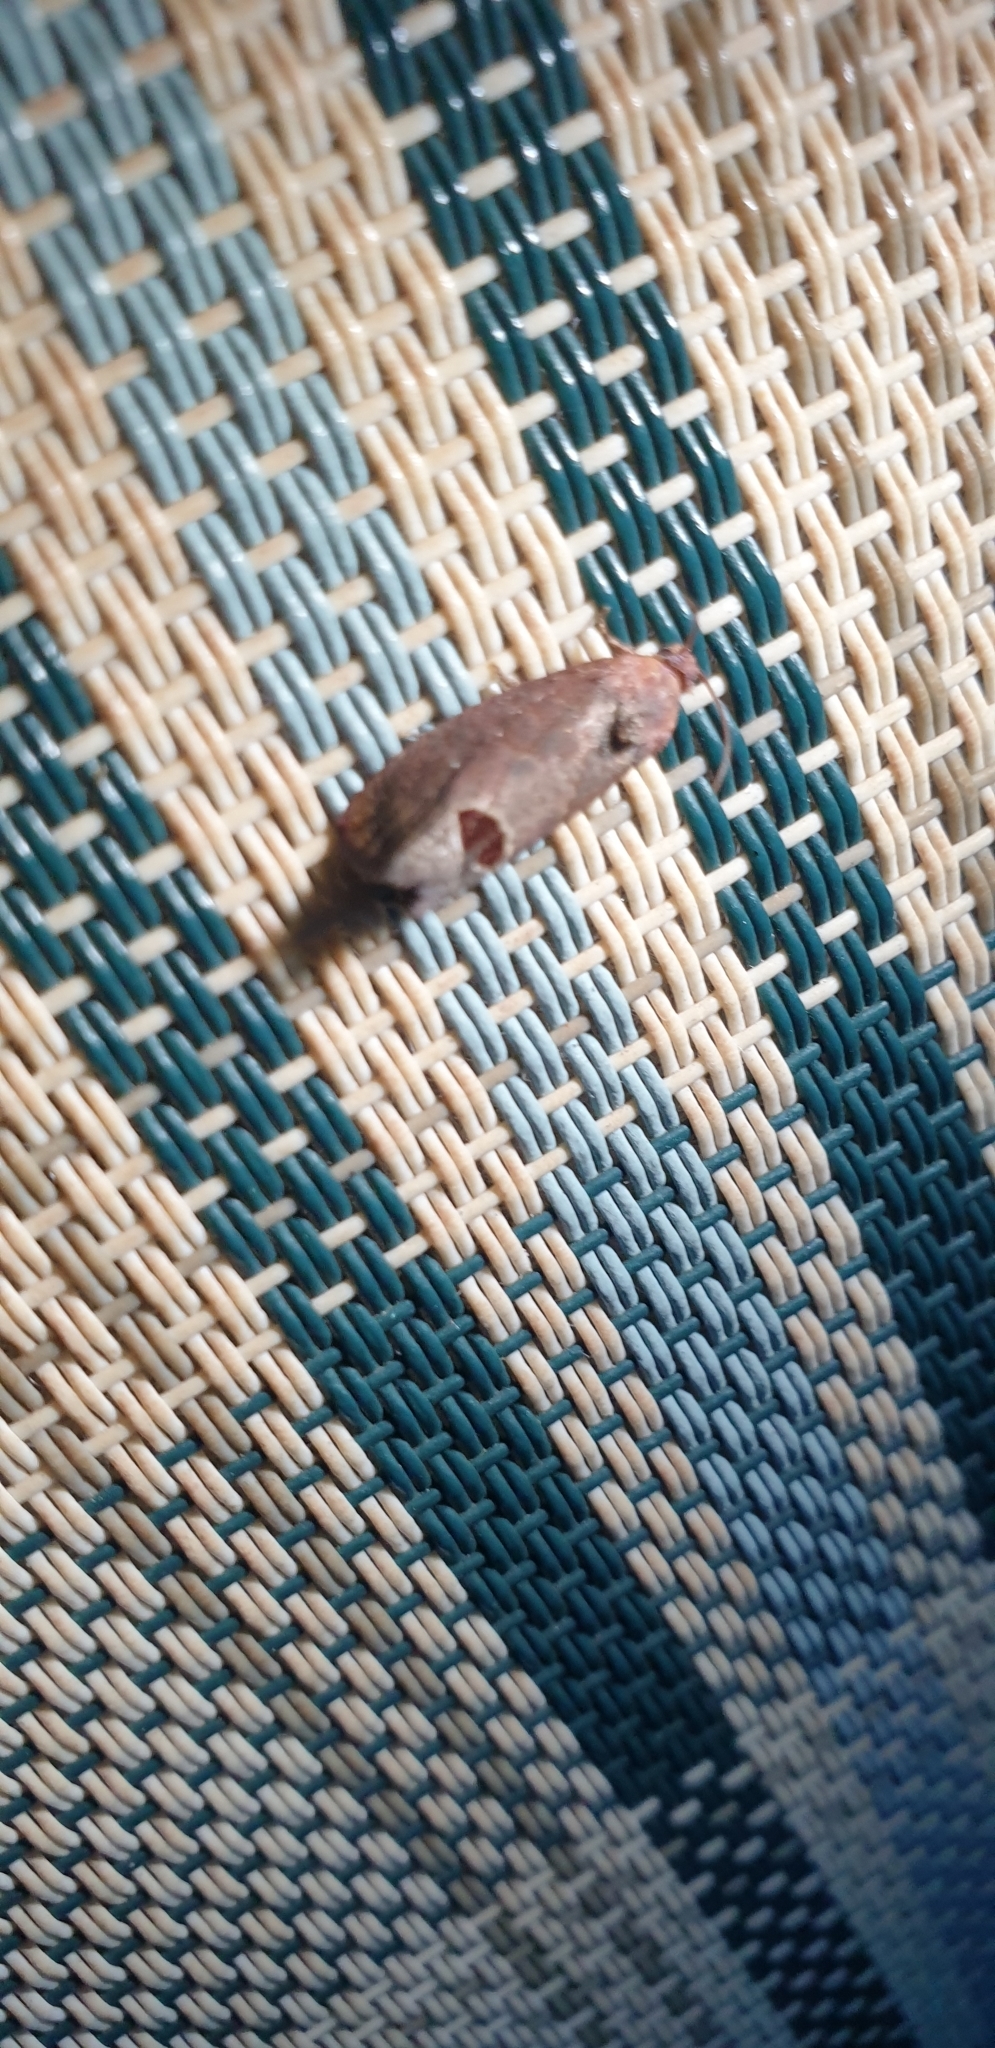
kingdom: Animalia
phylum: Arthropoda
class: Insecta
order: Lepidoptera
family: Tortricidae
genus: Cryptophlebia
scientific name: Cryptophlebia ombrodelta
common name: Litchi fruit moth
